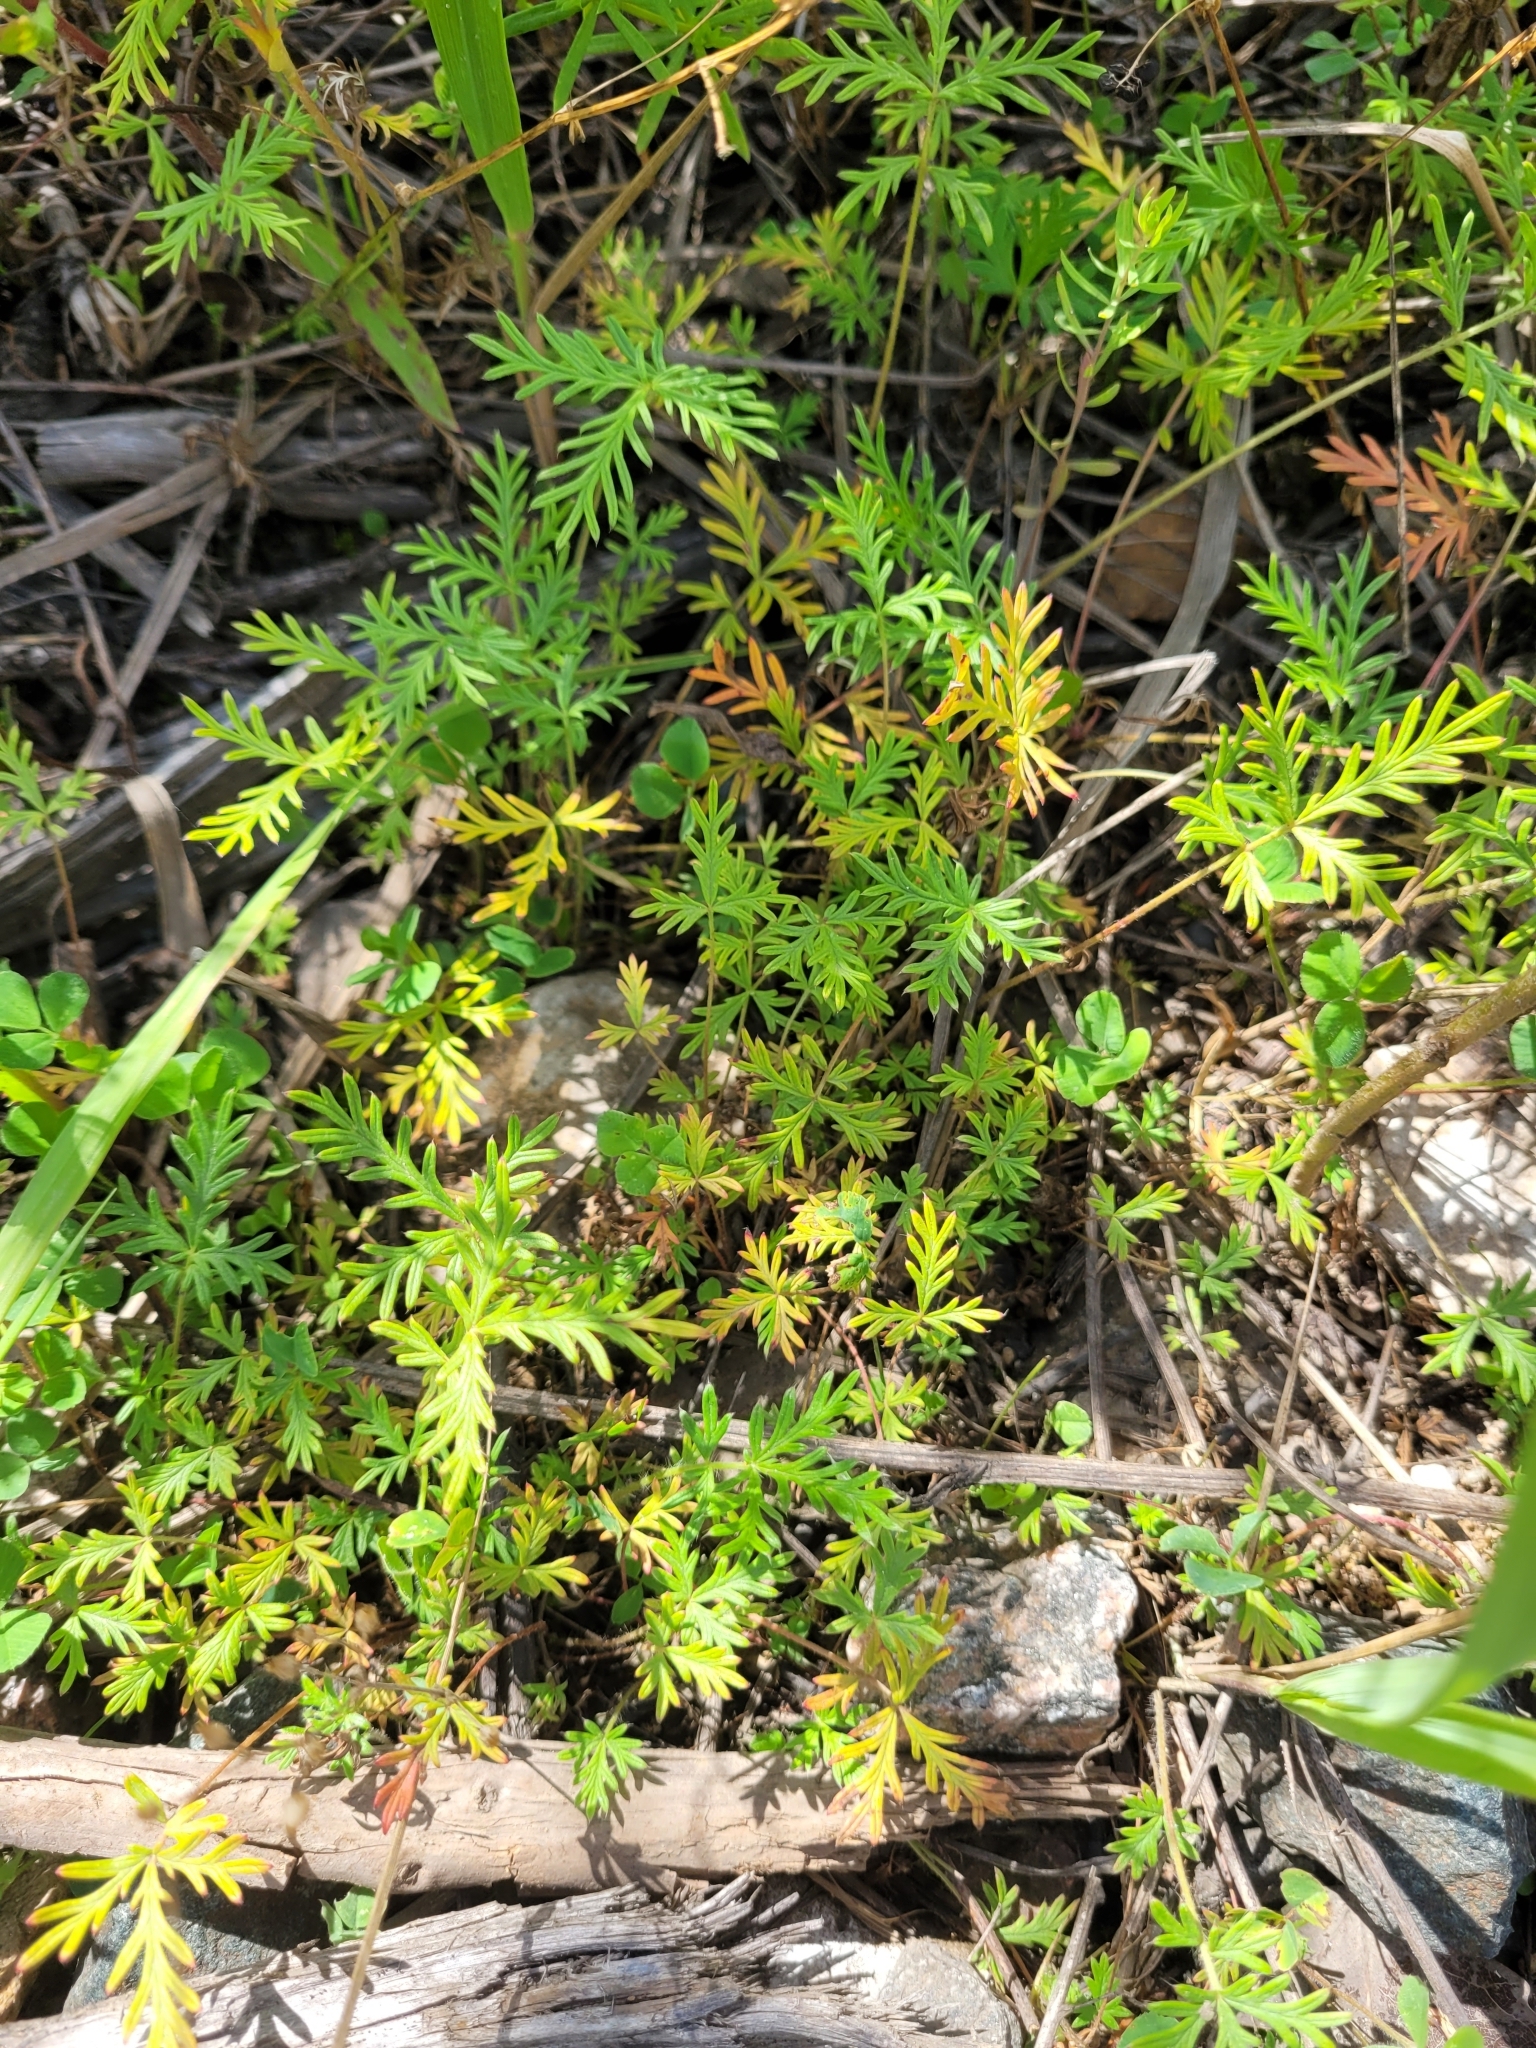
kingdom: Plantae
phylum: Tracheophyta
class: Magnoliopsida
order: Rosales
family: Rosaceae
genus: Potentilla
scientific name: Potentilla tergemina
